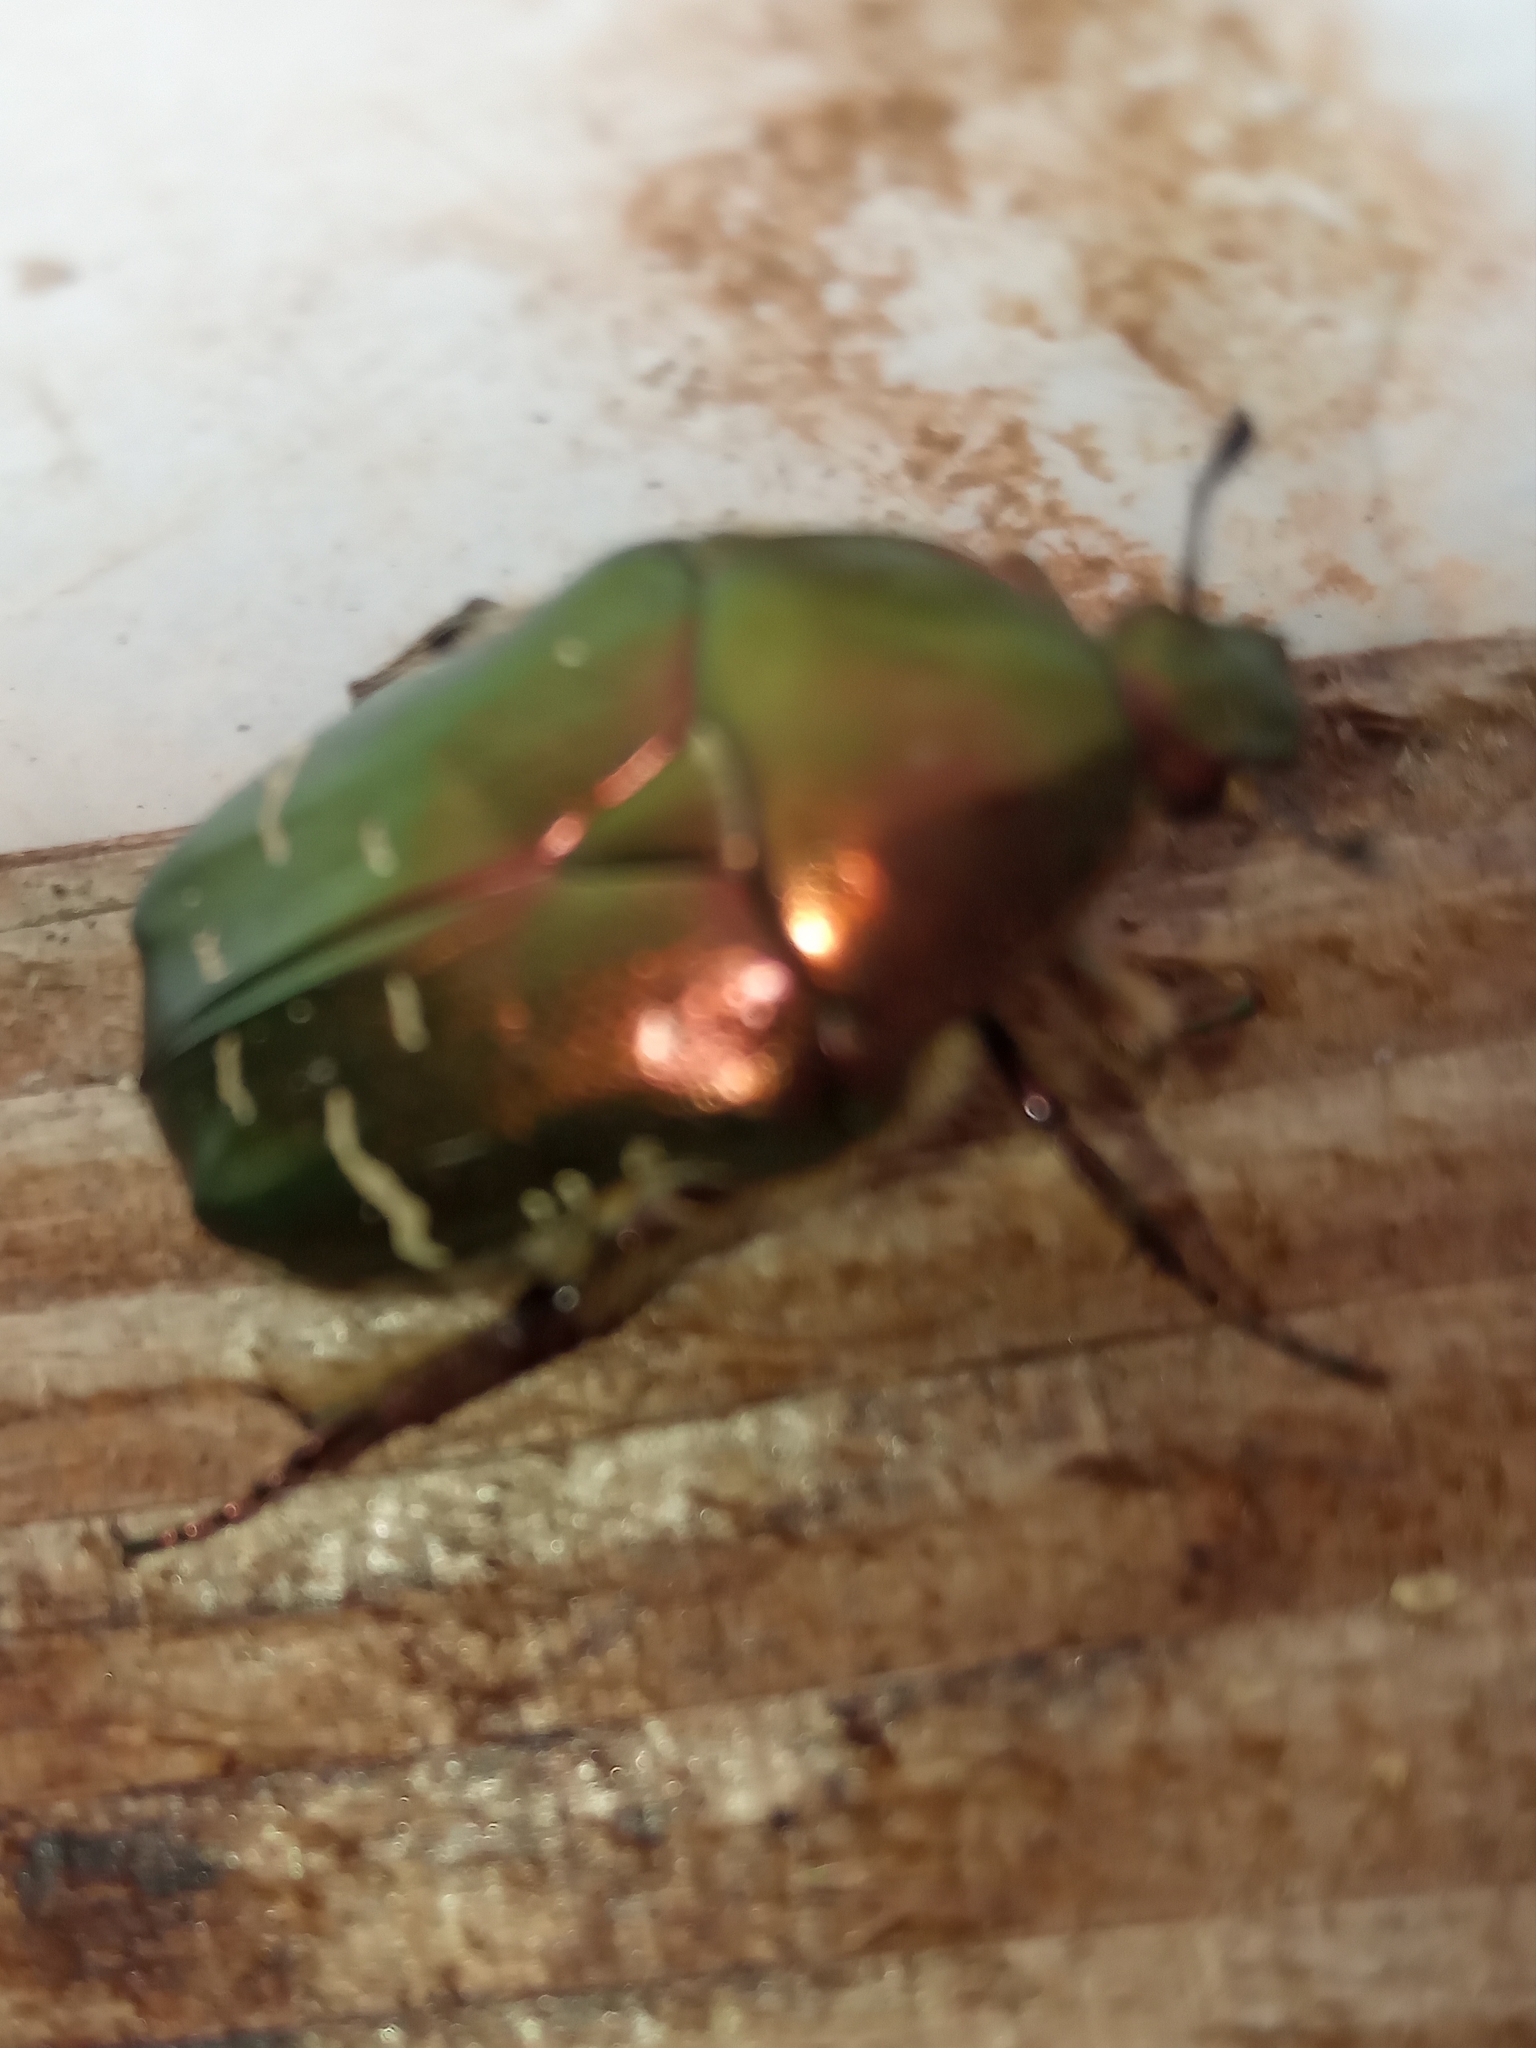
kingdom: Animalia
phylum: Arthropoda
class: Insecta
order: Coleoptera
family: Scarabaeidae
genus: Cetonia
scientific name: Cetonia aurata
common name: Rose chafer
